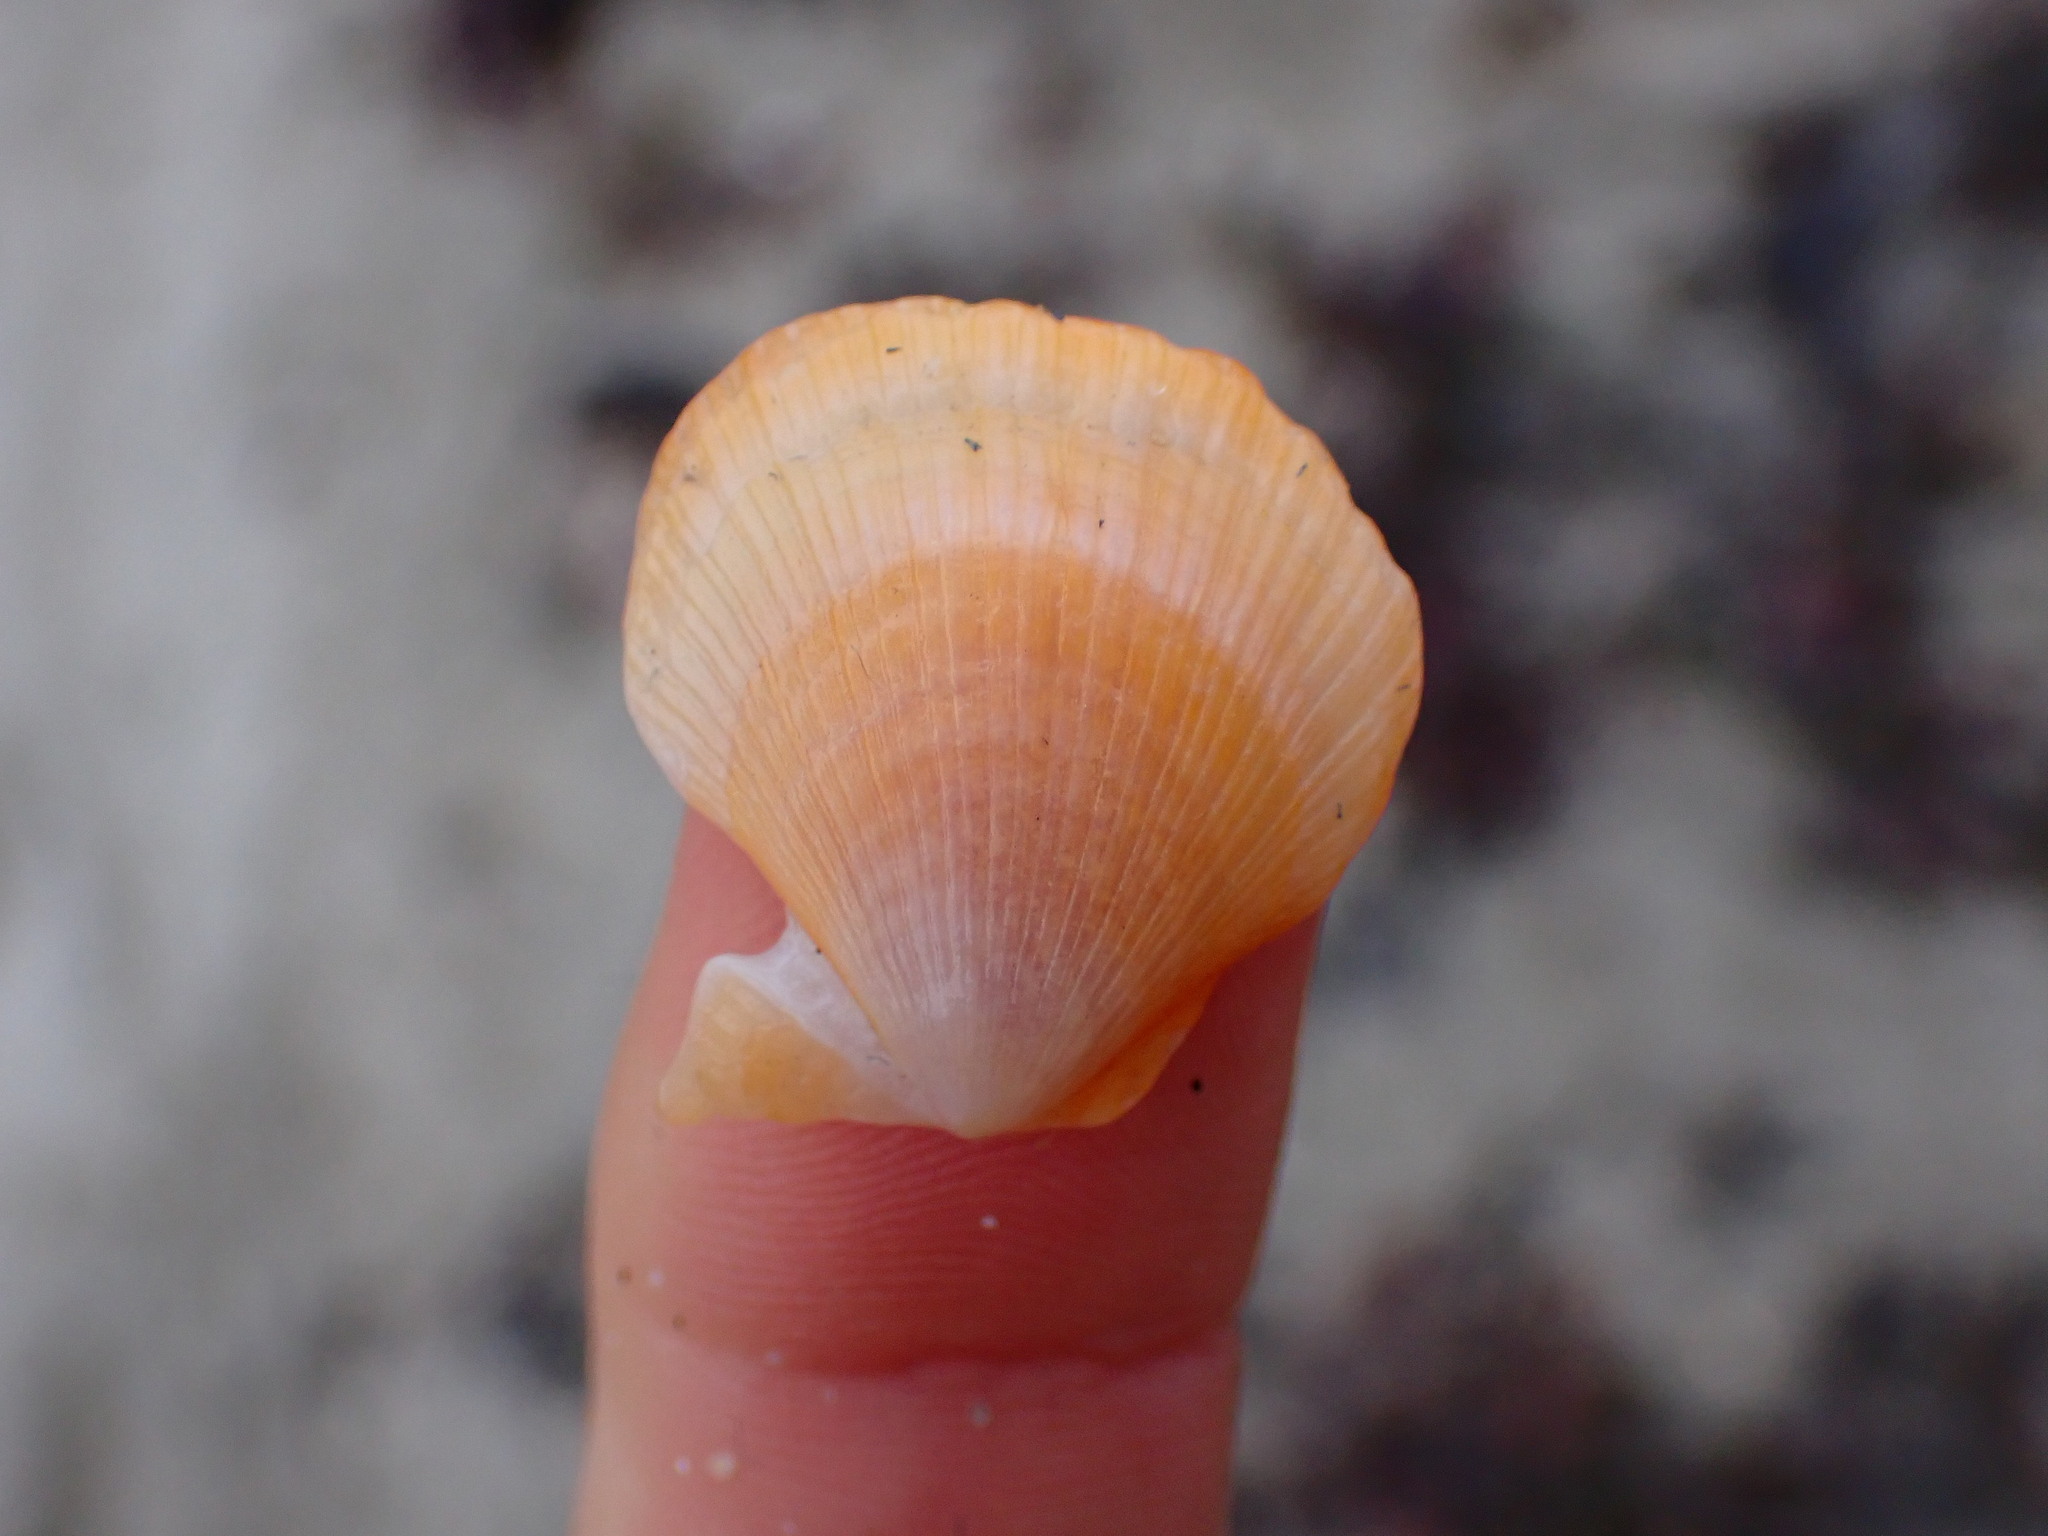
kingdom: Animalia
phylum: Mollusca
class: Bivalvia
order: Pectinida
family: Pectinidae
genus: Crassadoma
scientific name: Crassadoma gigantea
